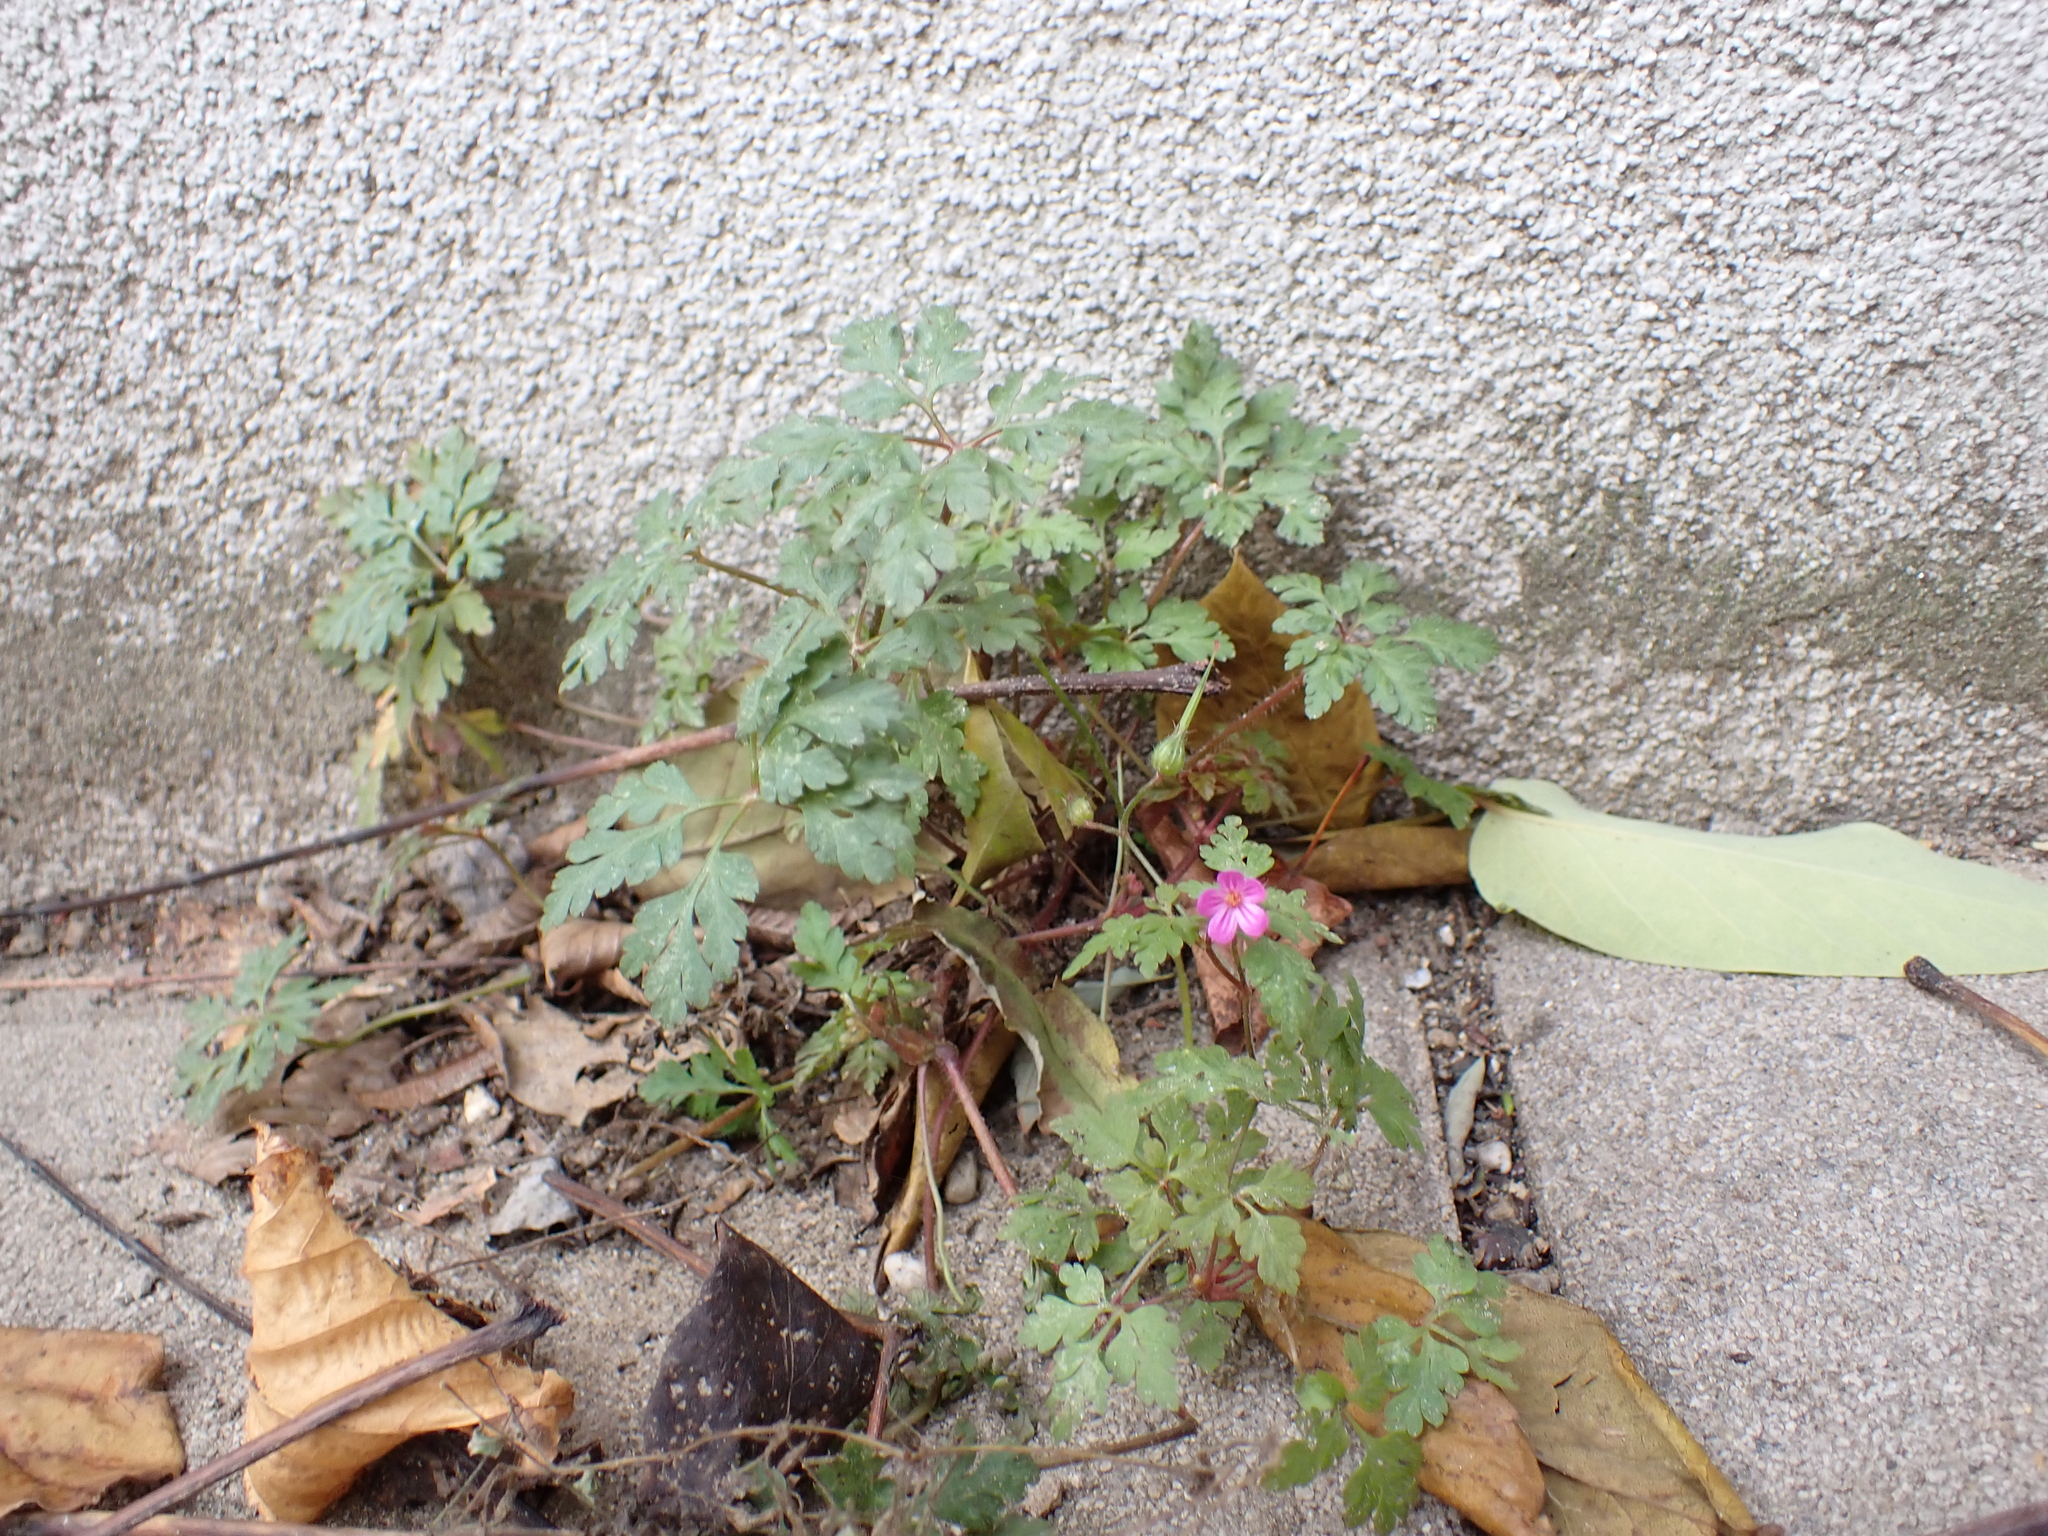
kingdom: Plantae
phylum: Tracheophyta
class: Magnoliopsida
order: Geraniales
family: Geraniaceae
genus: Geranium
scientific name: Geranium purpureum
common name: Little-robin
